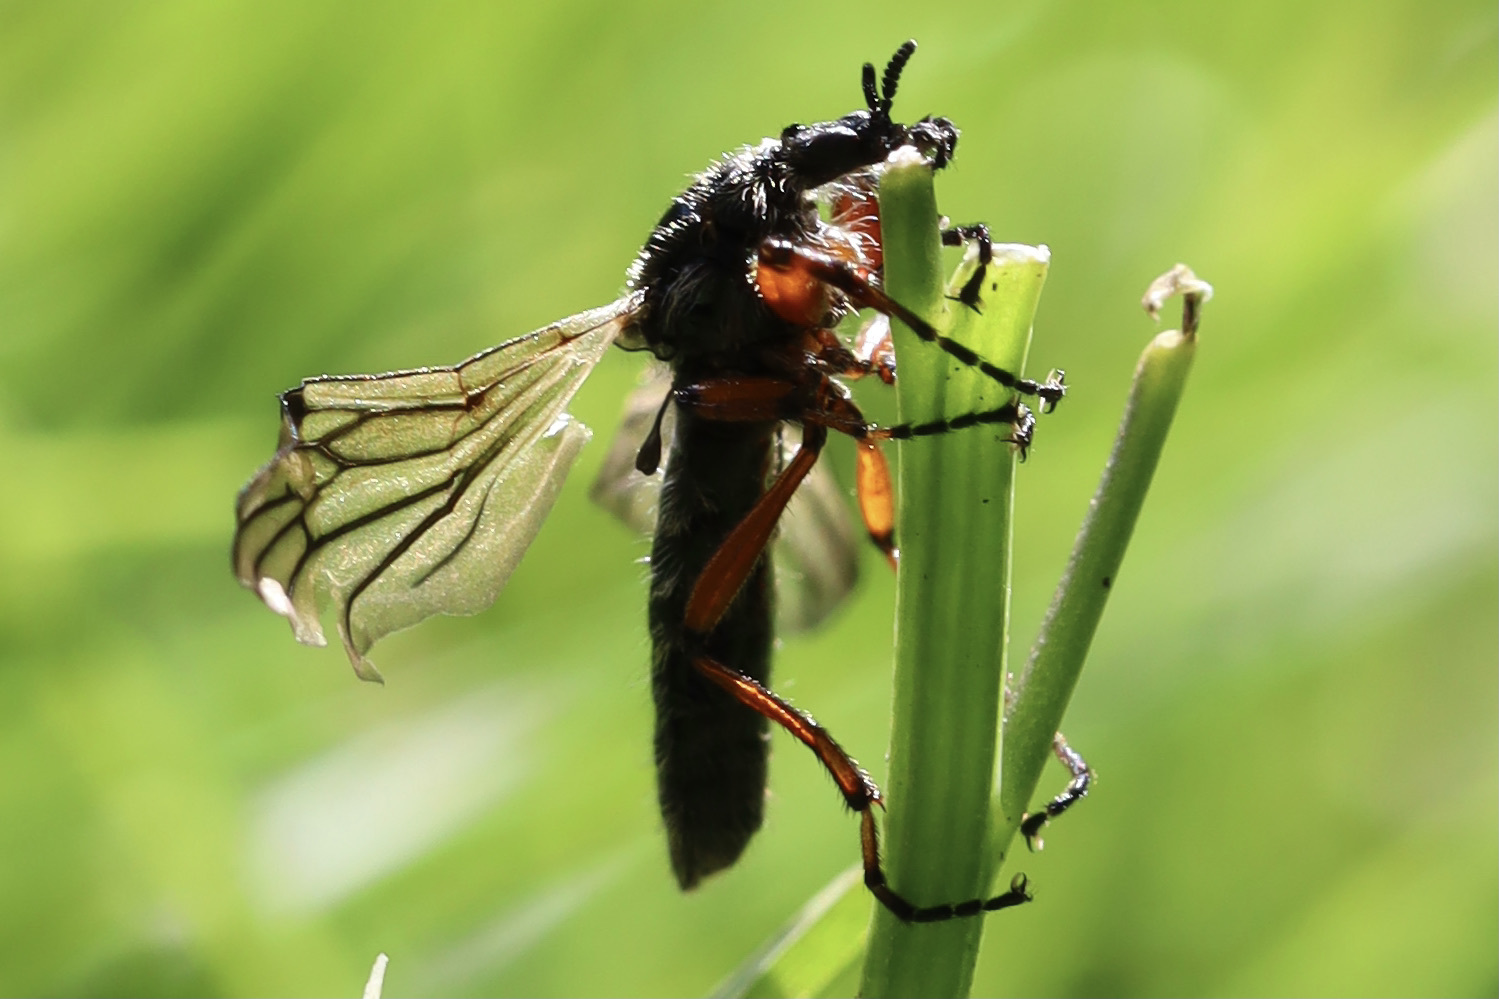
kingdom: Animalia
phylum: Arthropoda
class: Insecta
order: Diptera
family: Bibionidae
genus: Bibio
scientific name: Bibio
